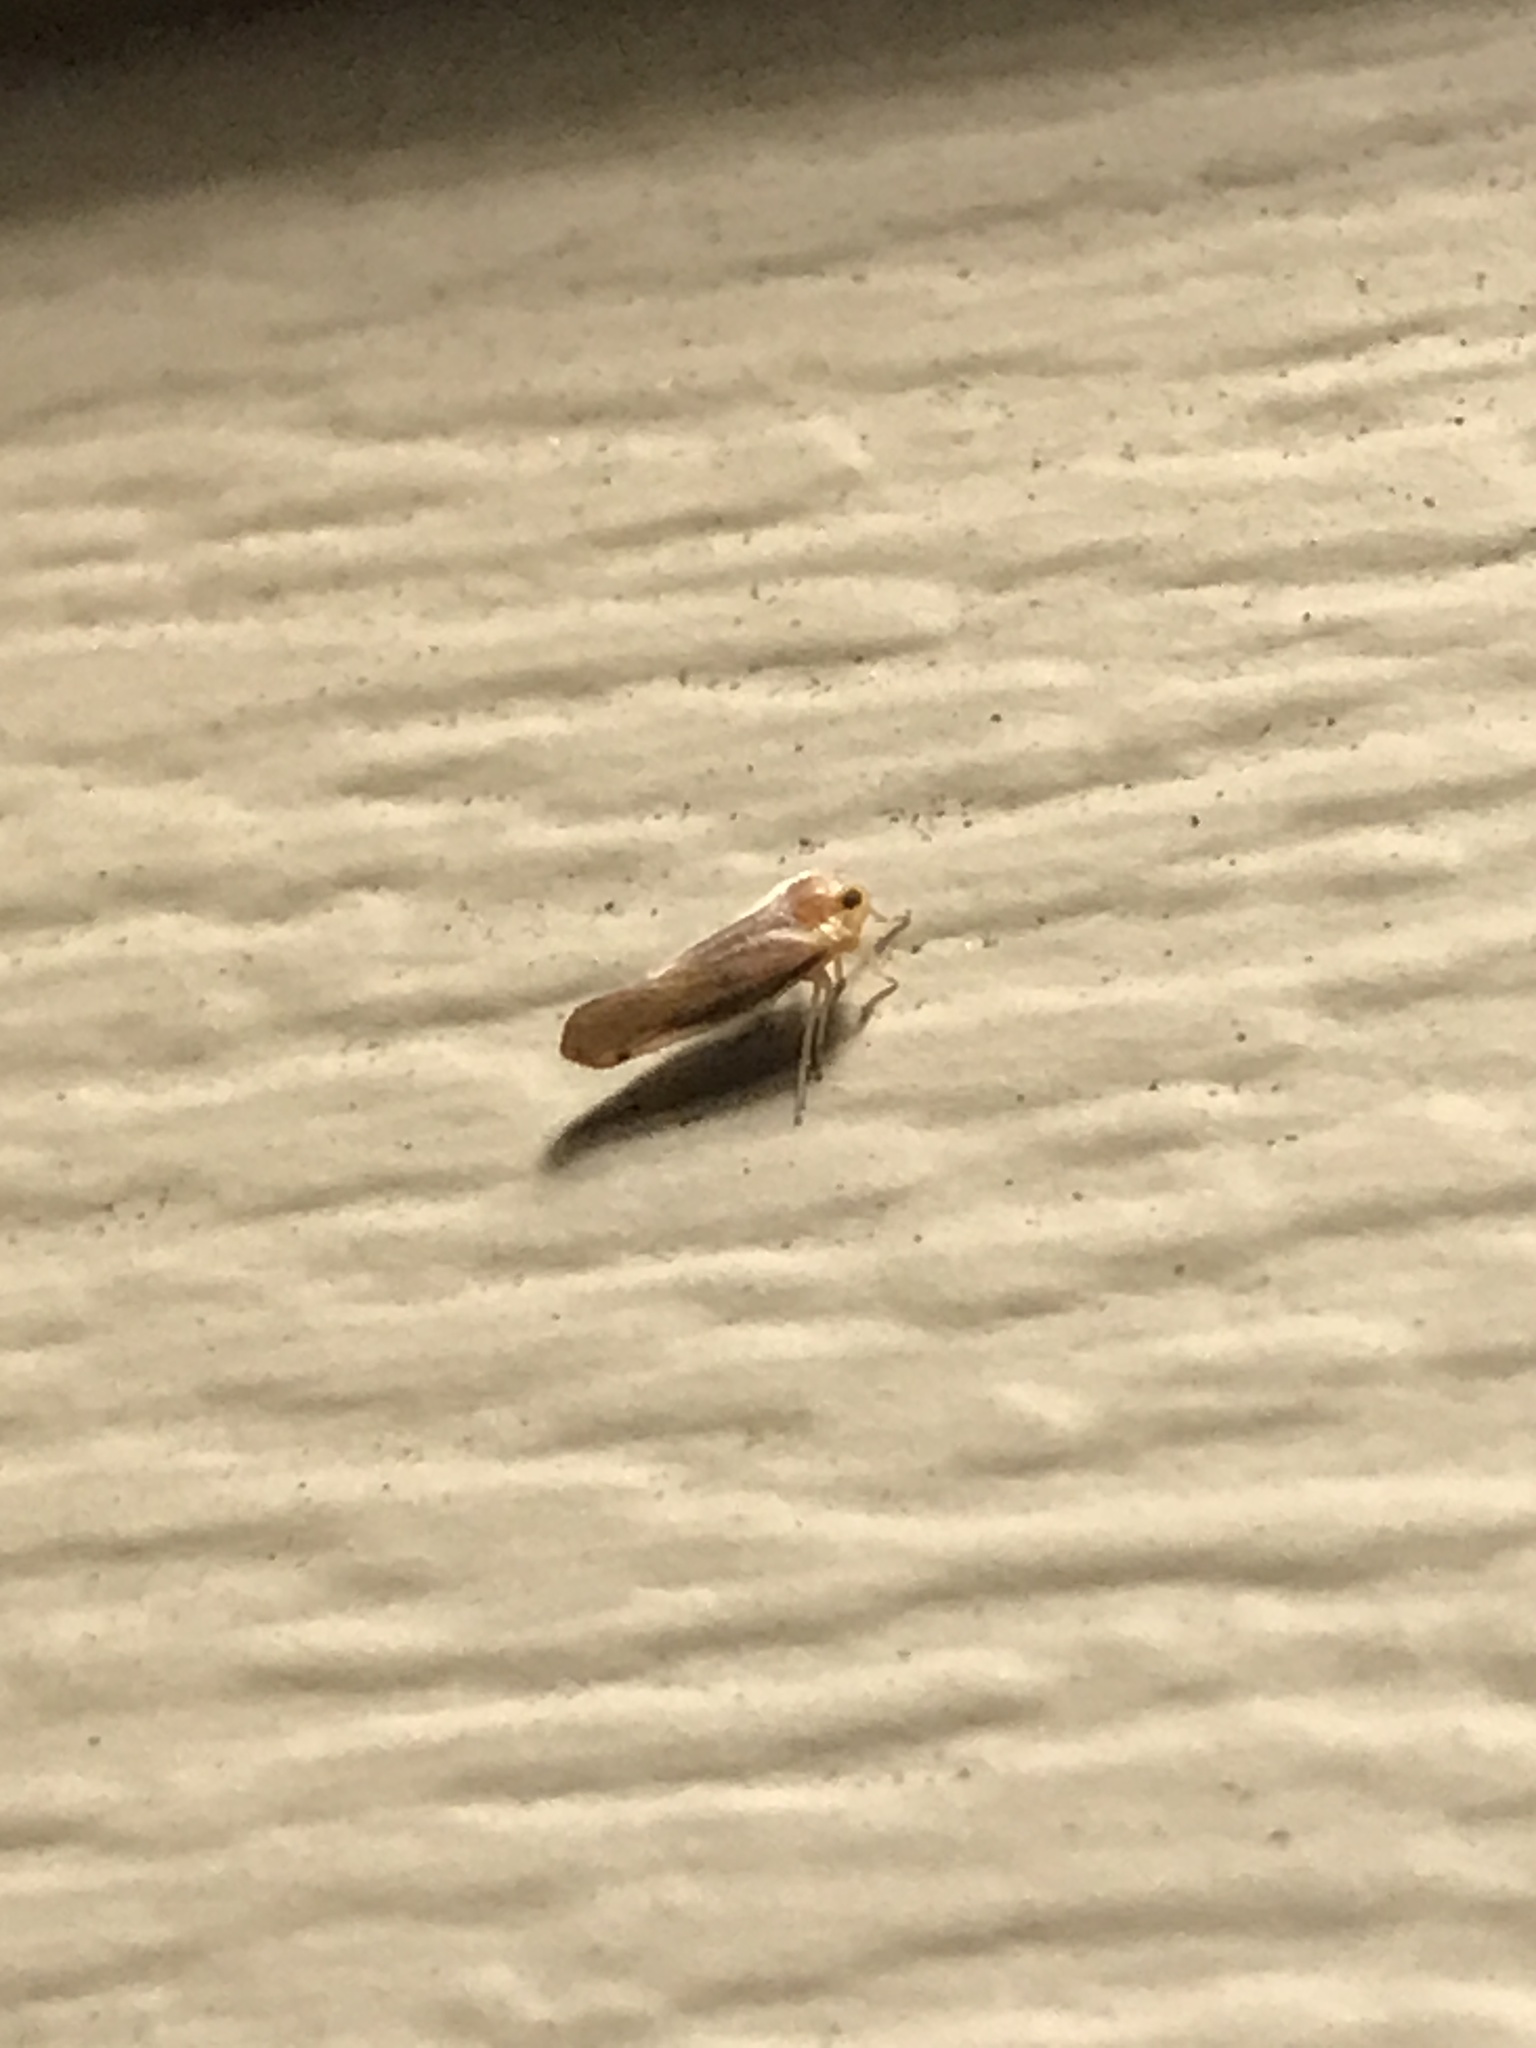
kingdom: Animalia
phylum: Arthropoda
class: Insecta
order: Hemiptera
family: Derbidae
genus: Omolicna
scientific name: Omolicna uhleri
